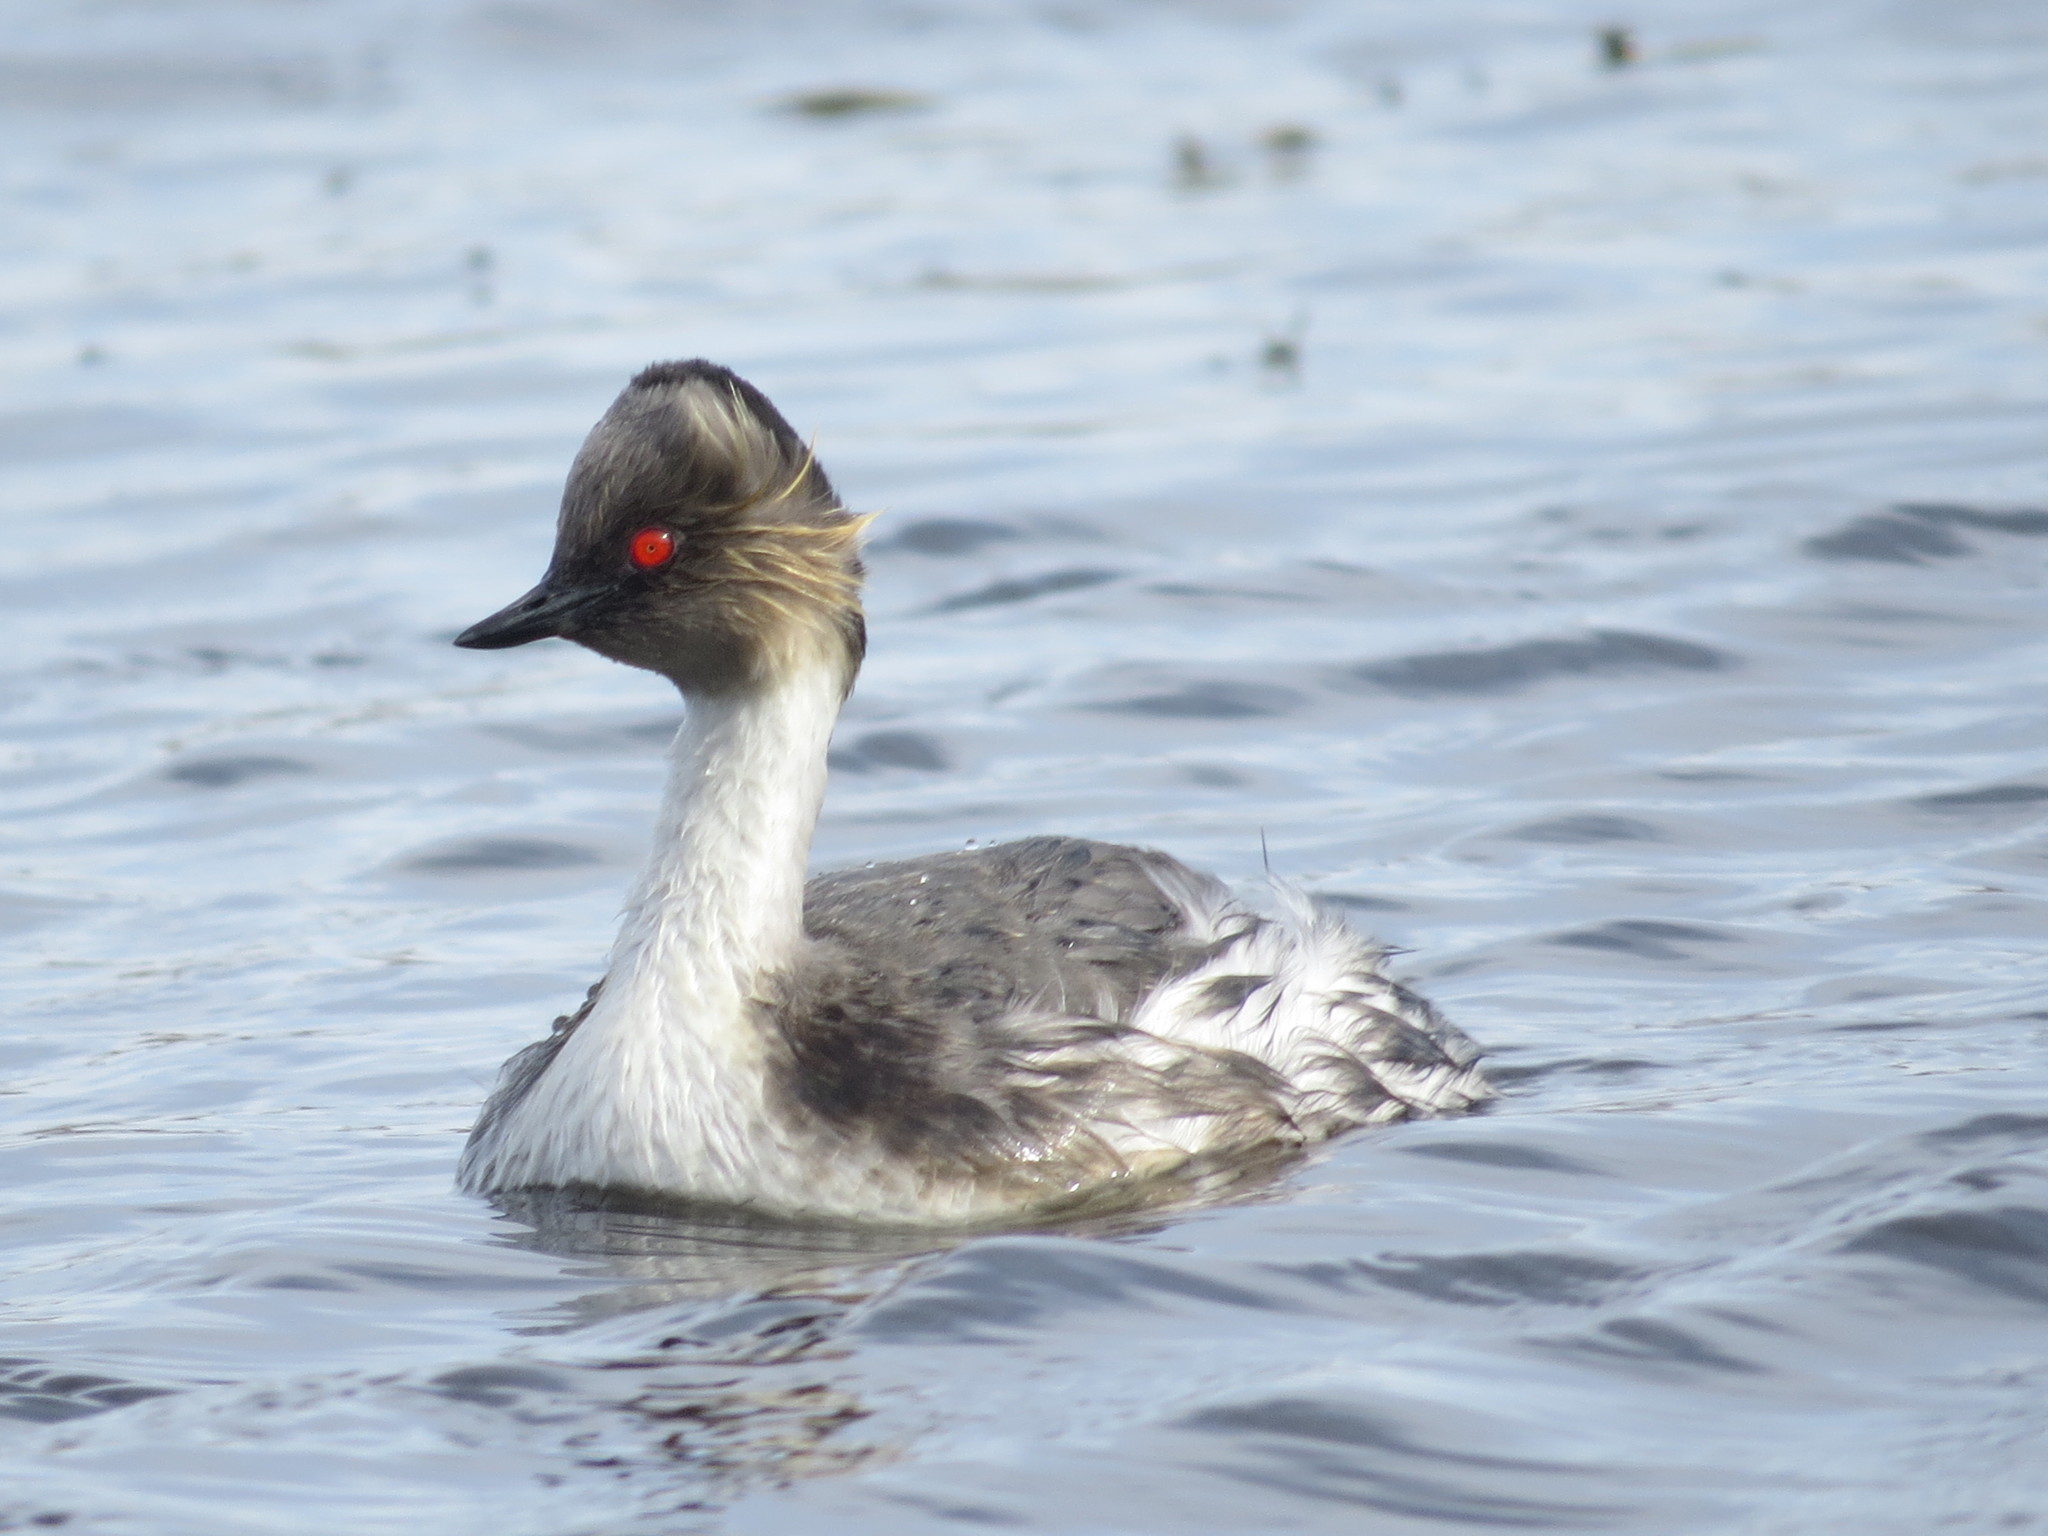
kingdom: Animalia
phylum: Chordata
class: Aves
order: Podicipediformes
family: Podicipedidae
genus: Podiceps
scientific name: Podiceps occipitalis
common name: Silvery grebe
